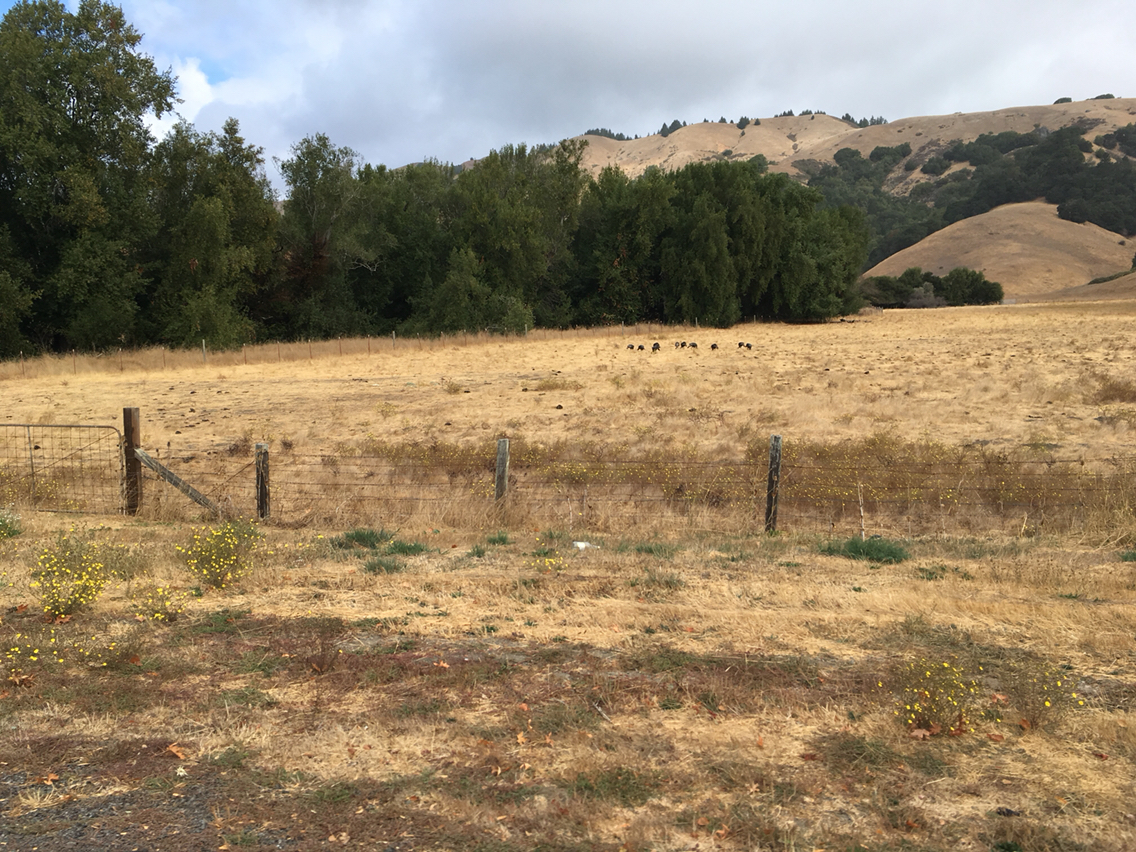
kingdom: Animalia
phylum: Chordata
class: Aves
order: Galliformes
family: Phasianidae
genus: Meleagris
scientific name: Meleagris gallopavo
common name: Wild turkey
